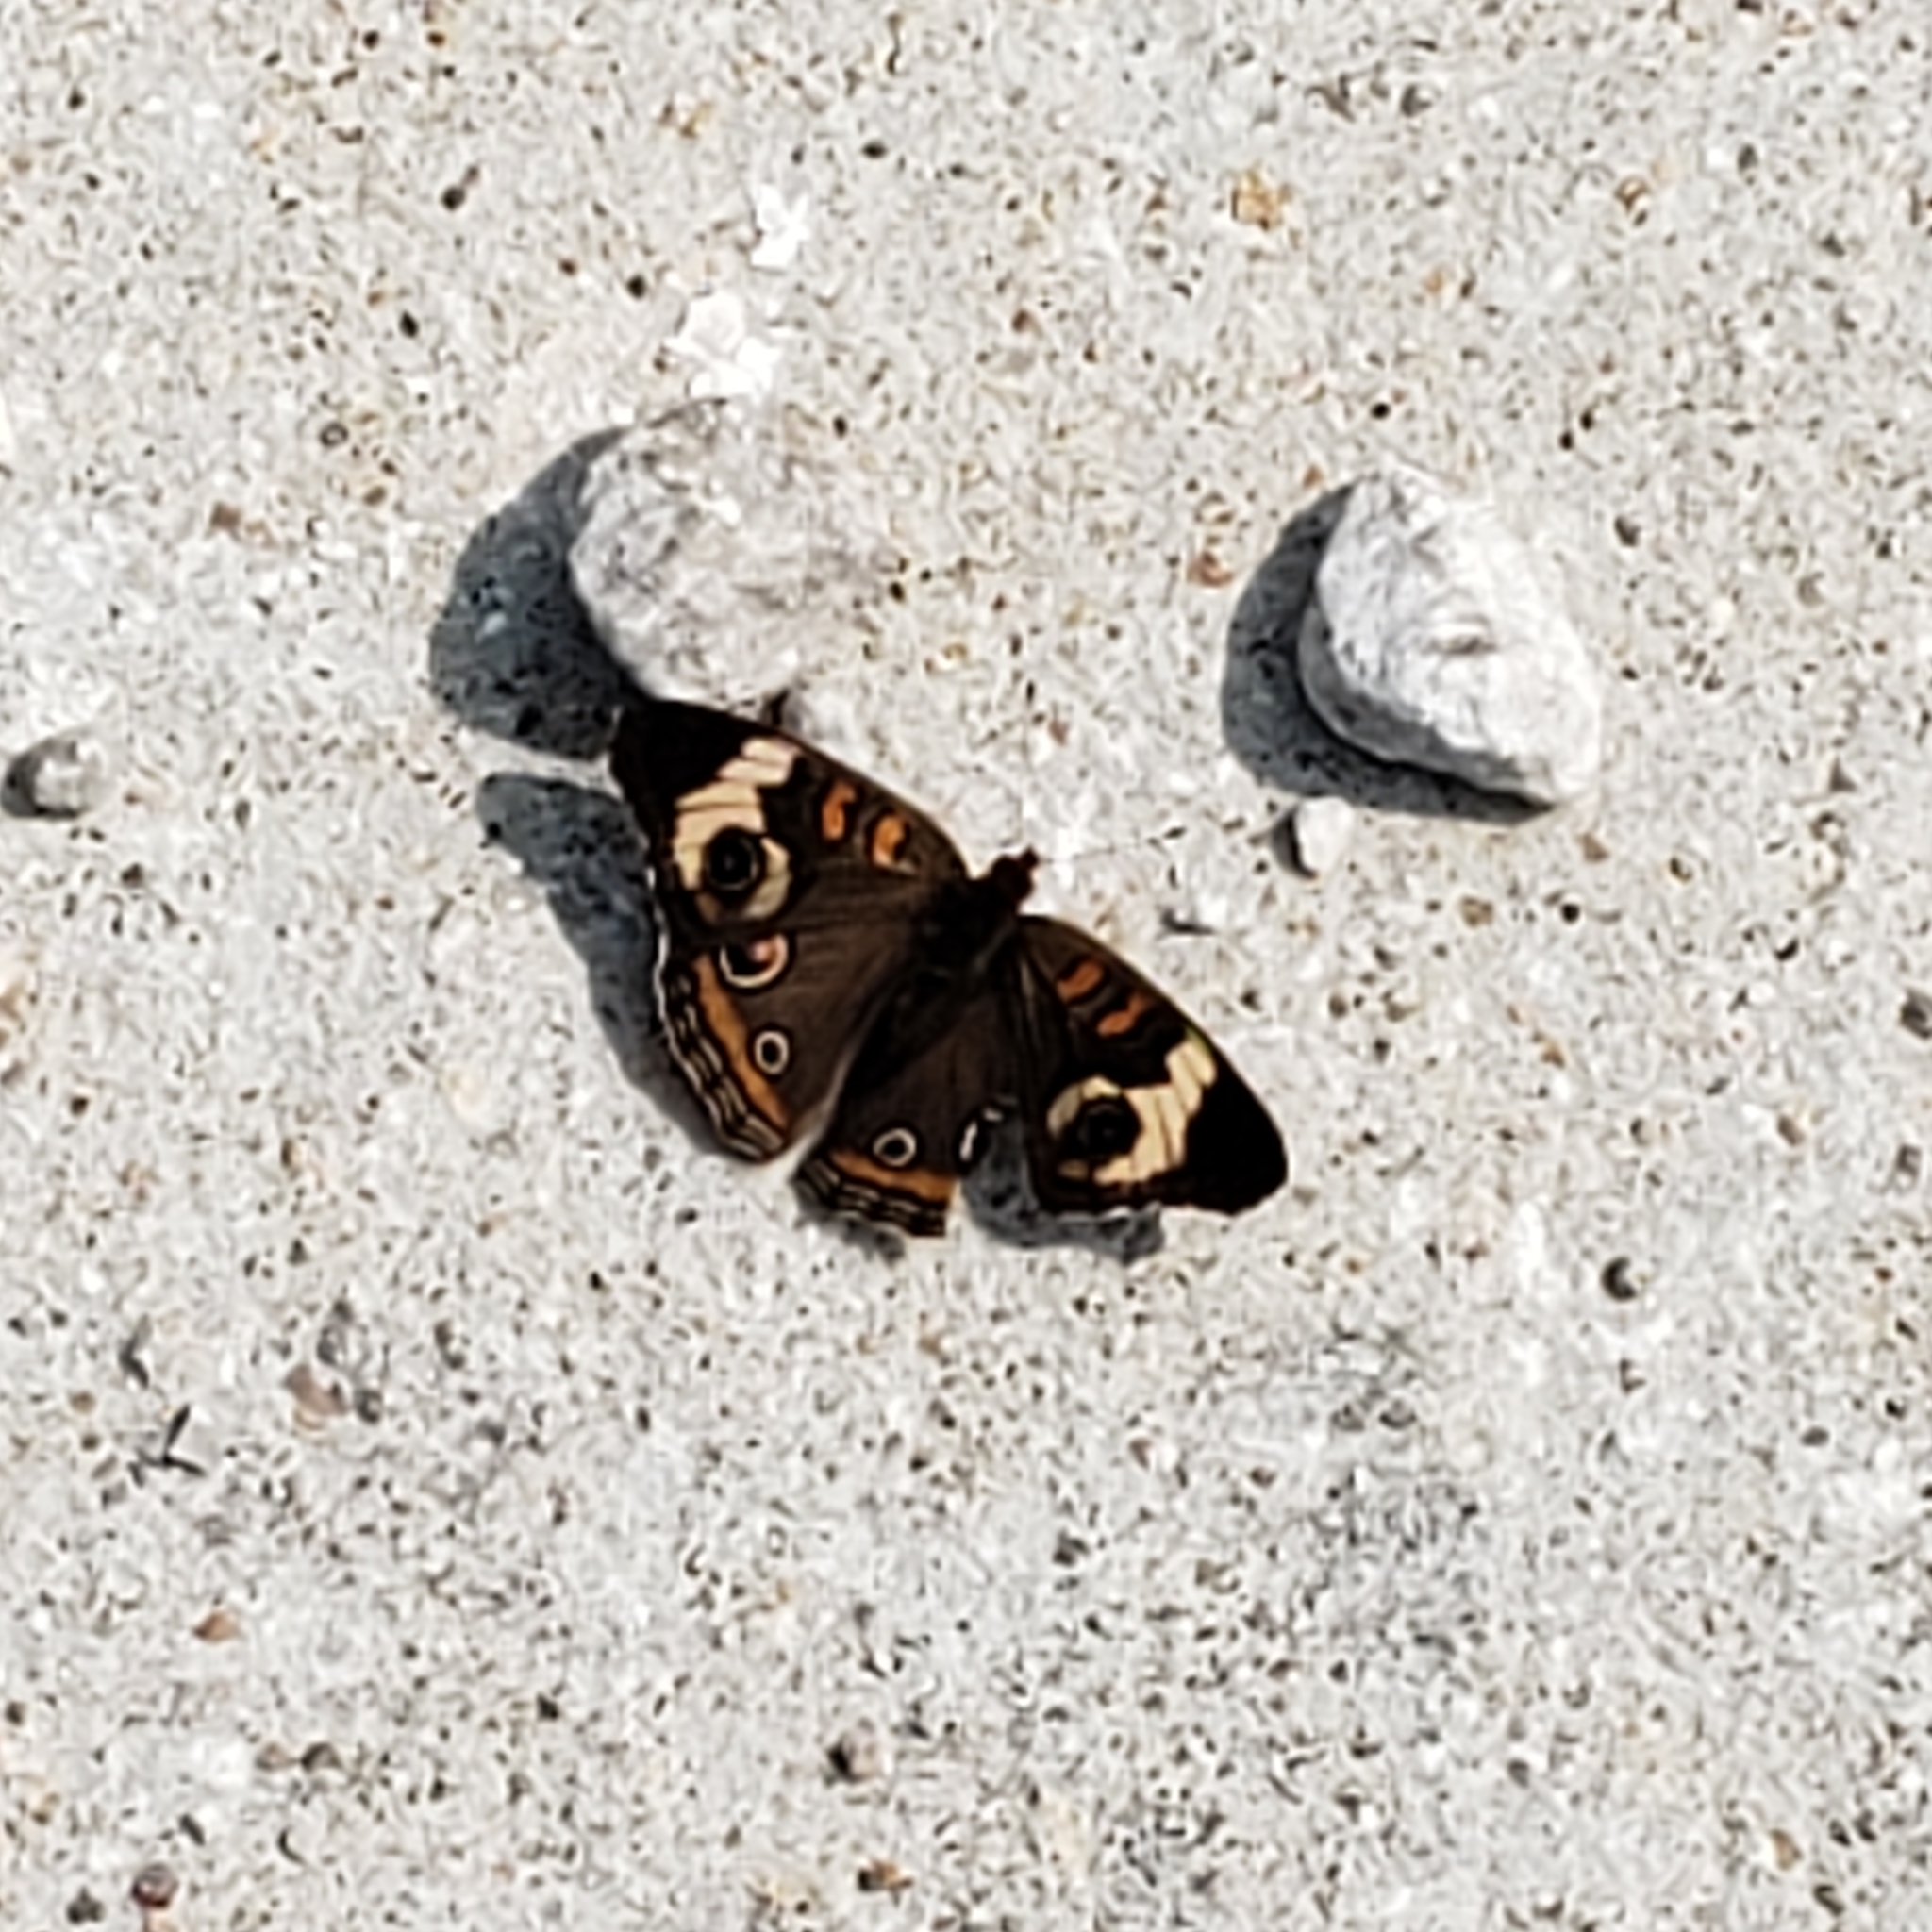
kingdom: Animalia
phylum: Arthropoda
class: Insecta
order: Lepidoptera
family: Nymphalidae
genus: Junonia
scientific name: Junonia coenia
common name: Common buckeye
